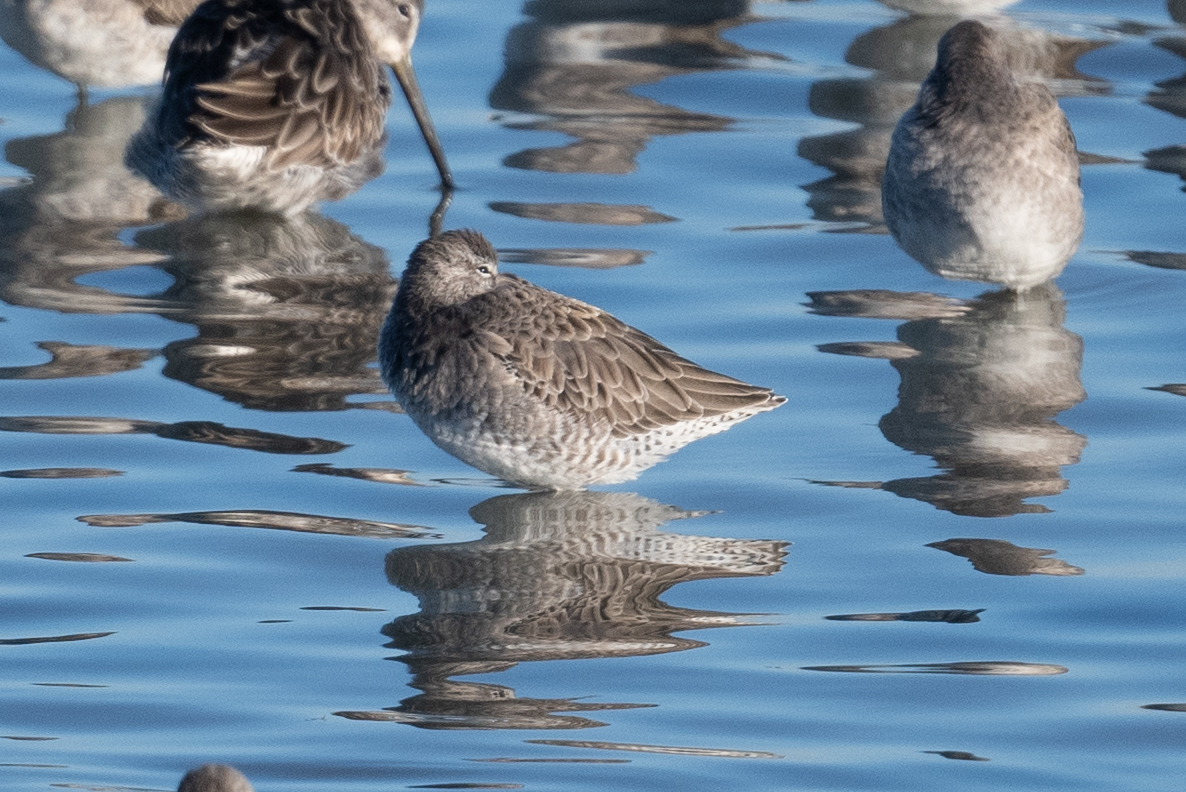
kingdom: Animalia
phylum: Chordata
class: Aves
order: Charadriiformes
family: Scolopacidae
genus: Limnodromus
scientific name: Limnodromus scolopaceus
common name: Long-billed dowitcher
